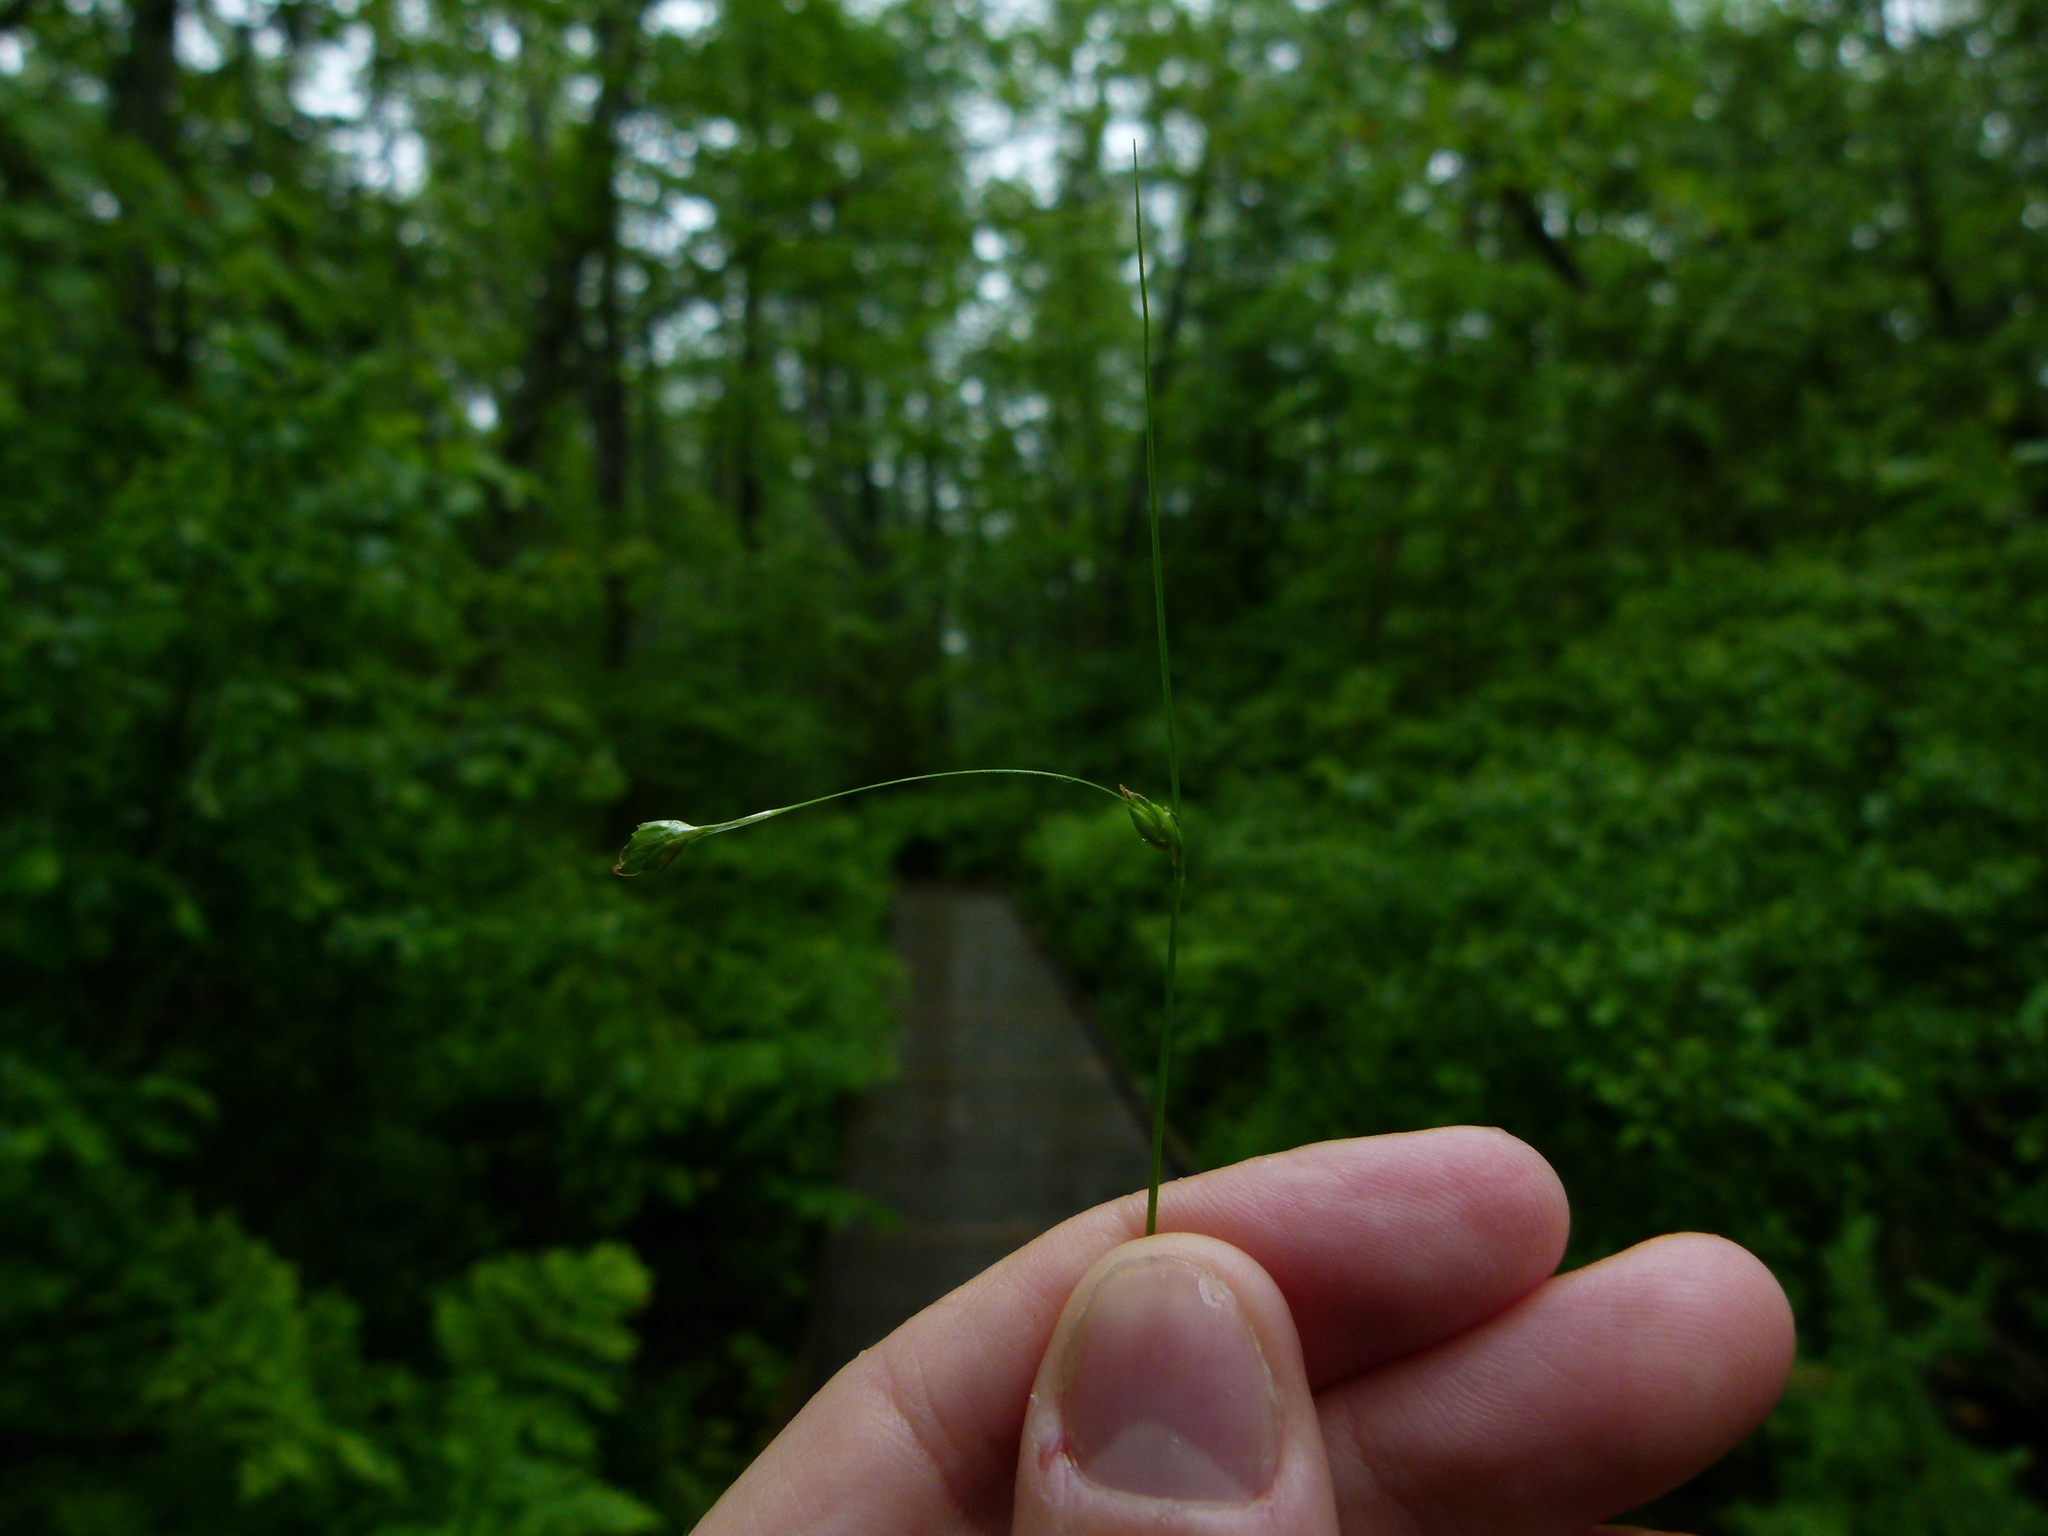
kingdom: Plantae
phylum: Tracheophyta
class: Liliopsida
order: Poales
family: Cyperaceae
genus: Carex
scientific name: Carex trisperma
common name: Three-seeded sedge
